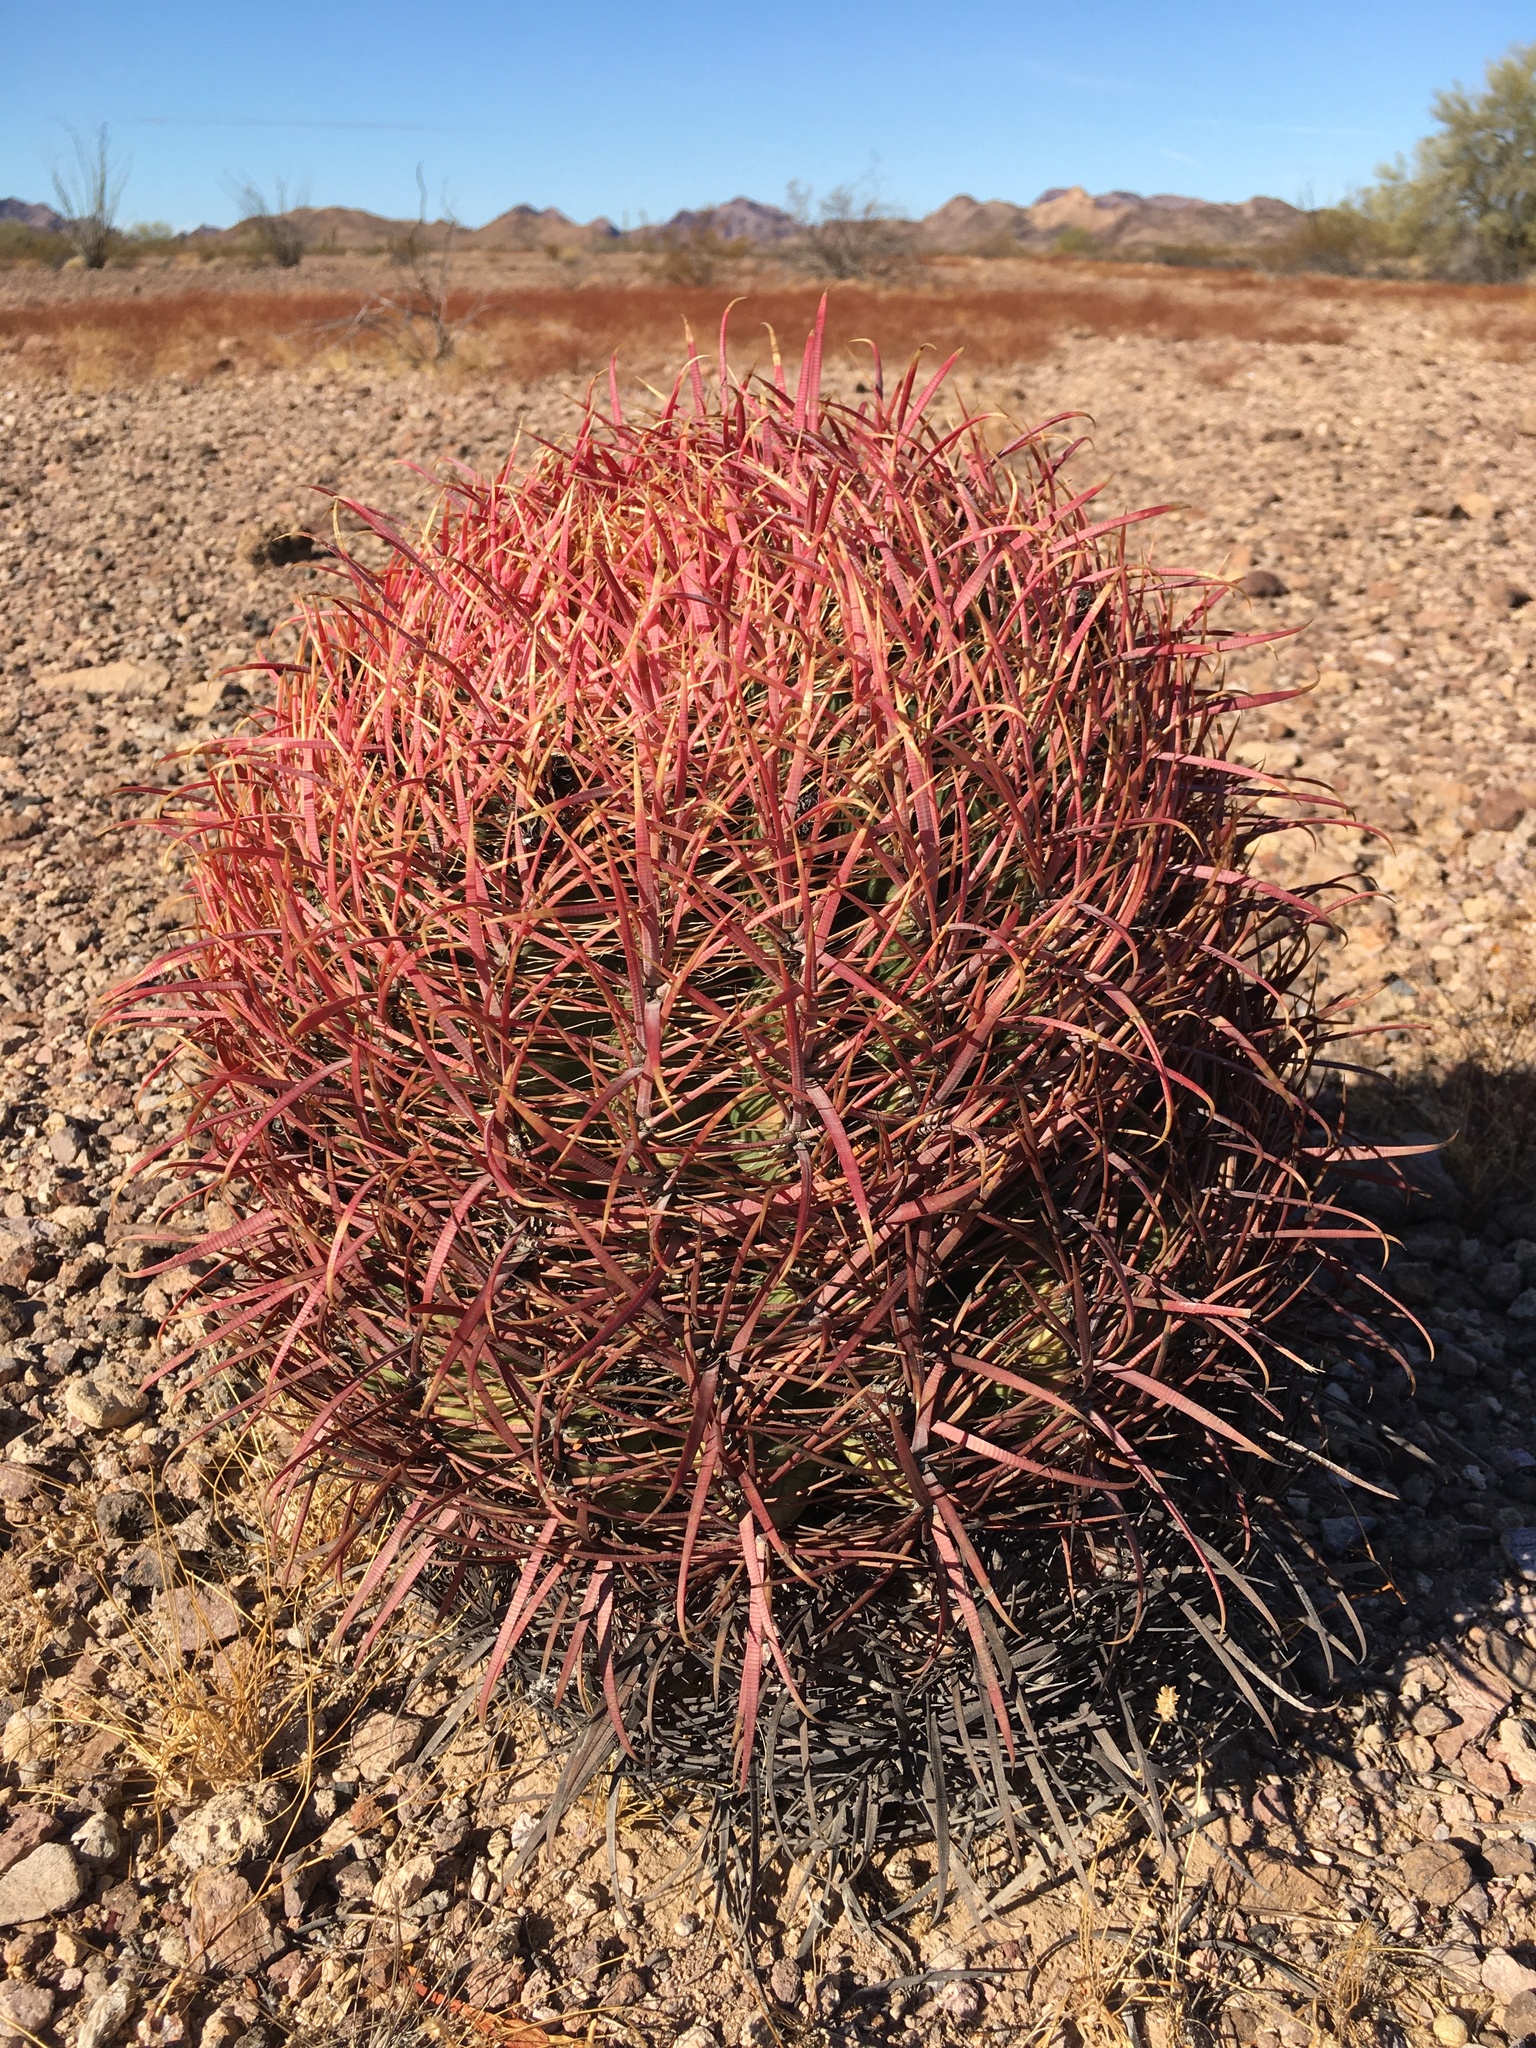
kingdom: Plantae
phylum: Tracheophyta
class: Magnoliopsida
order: Caryophyllales
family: Cactaceae
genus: Ferocactus
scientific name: Ferocactus cylindraceus
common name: California barrel cactus
